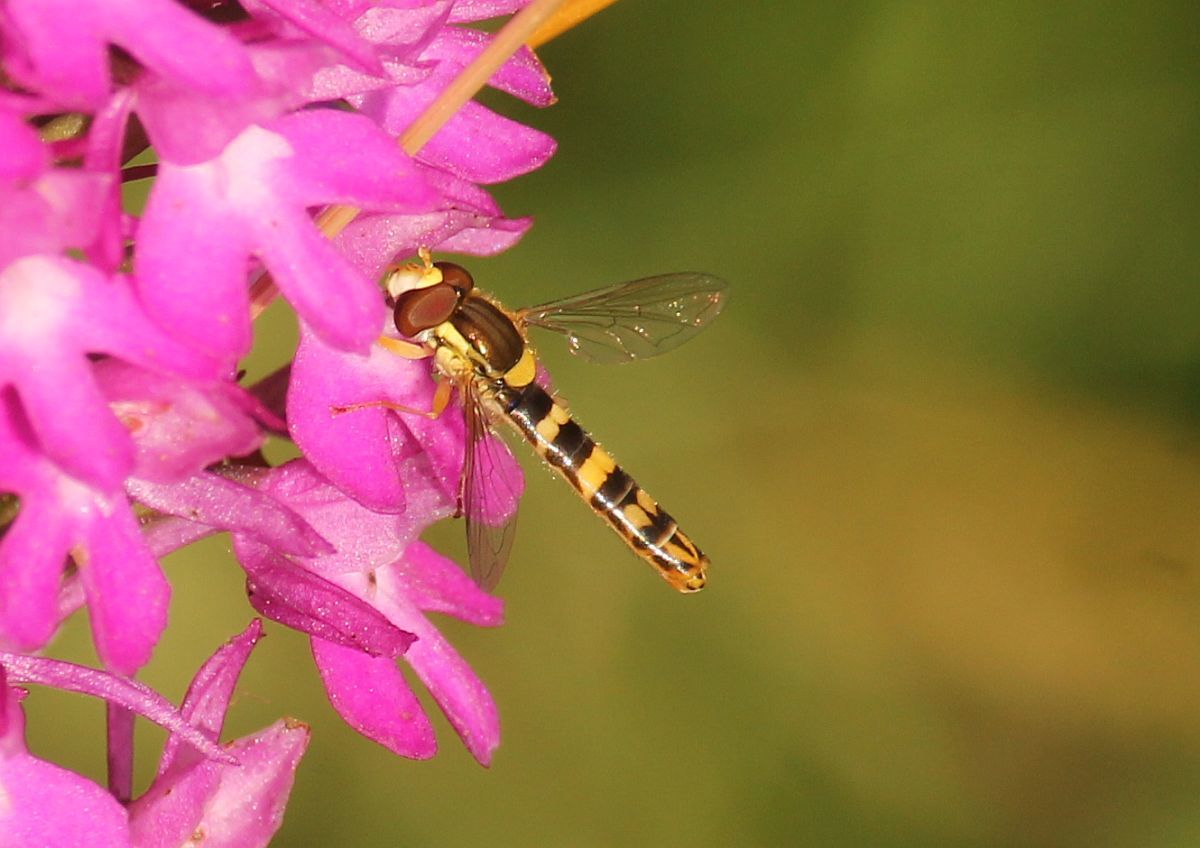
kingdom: Animalia
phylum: Arthropoda
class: Insecta
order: Diptera
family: Syrphidae
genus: Sphaerophoria
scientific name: Sphaerophoria scripta
